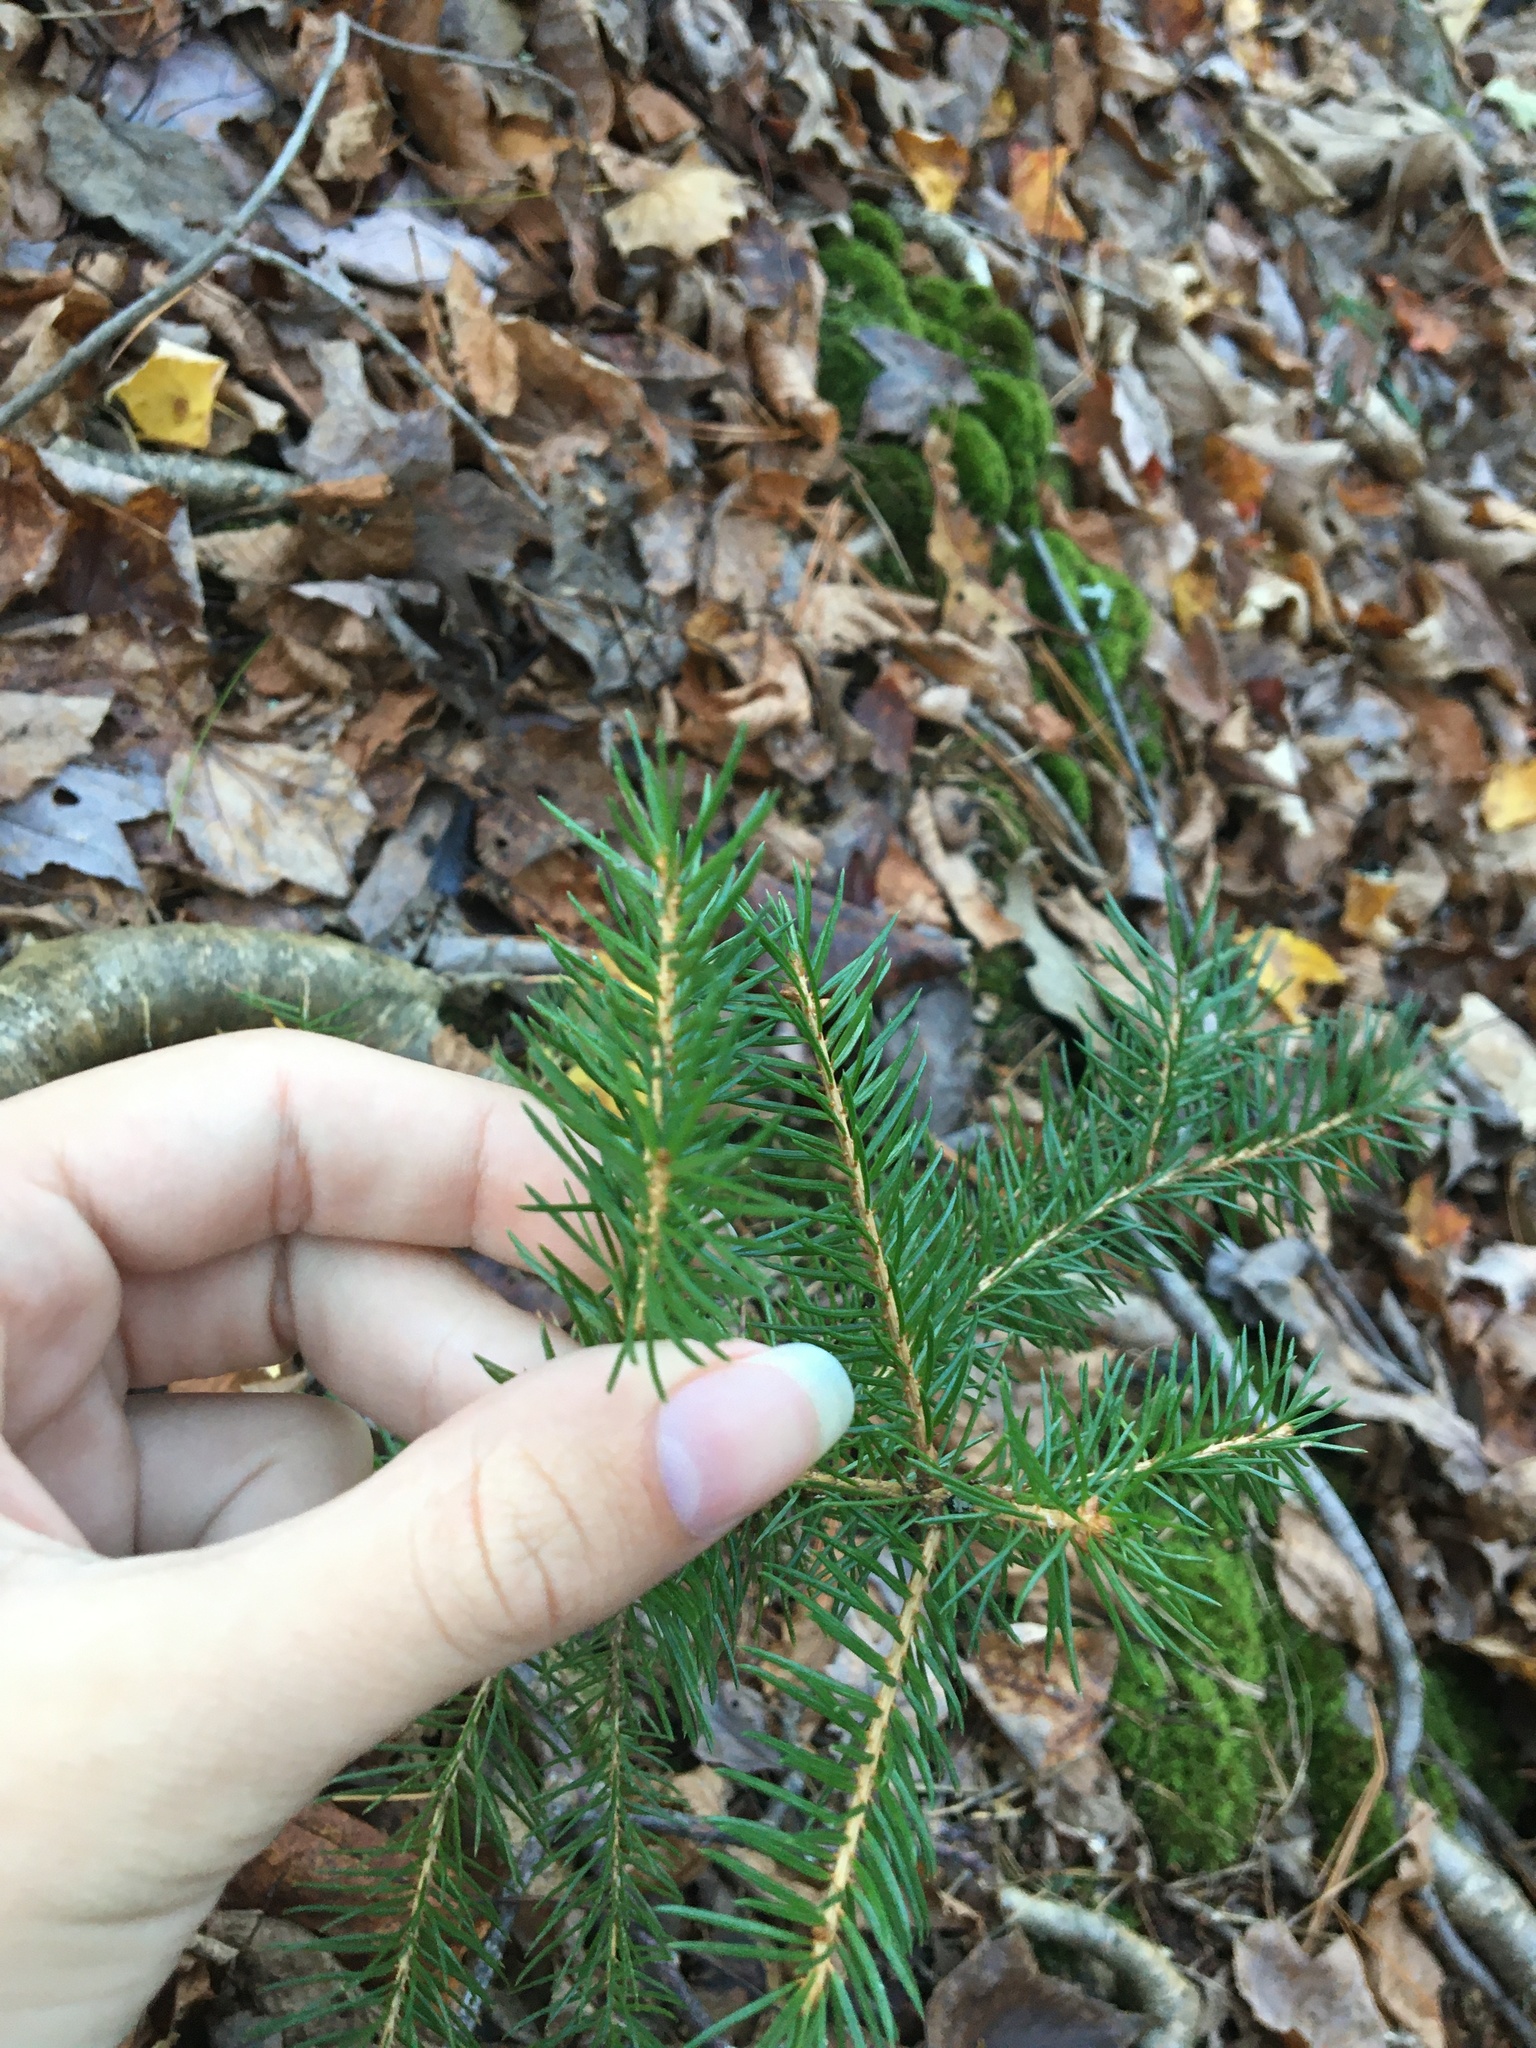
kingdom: Plantae
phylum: Tracheophyta
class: Pinopsida
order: Pinales
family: Pinaceae
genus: Picea
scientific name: Picea abies
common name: Norway spruce
